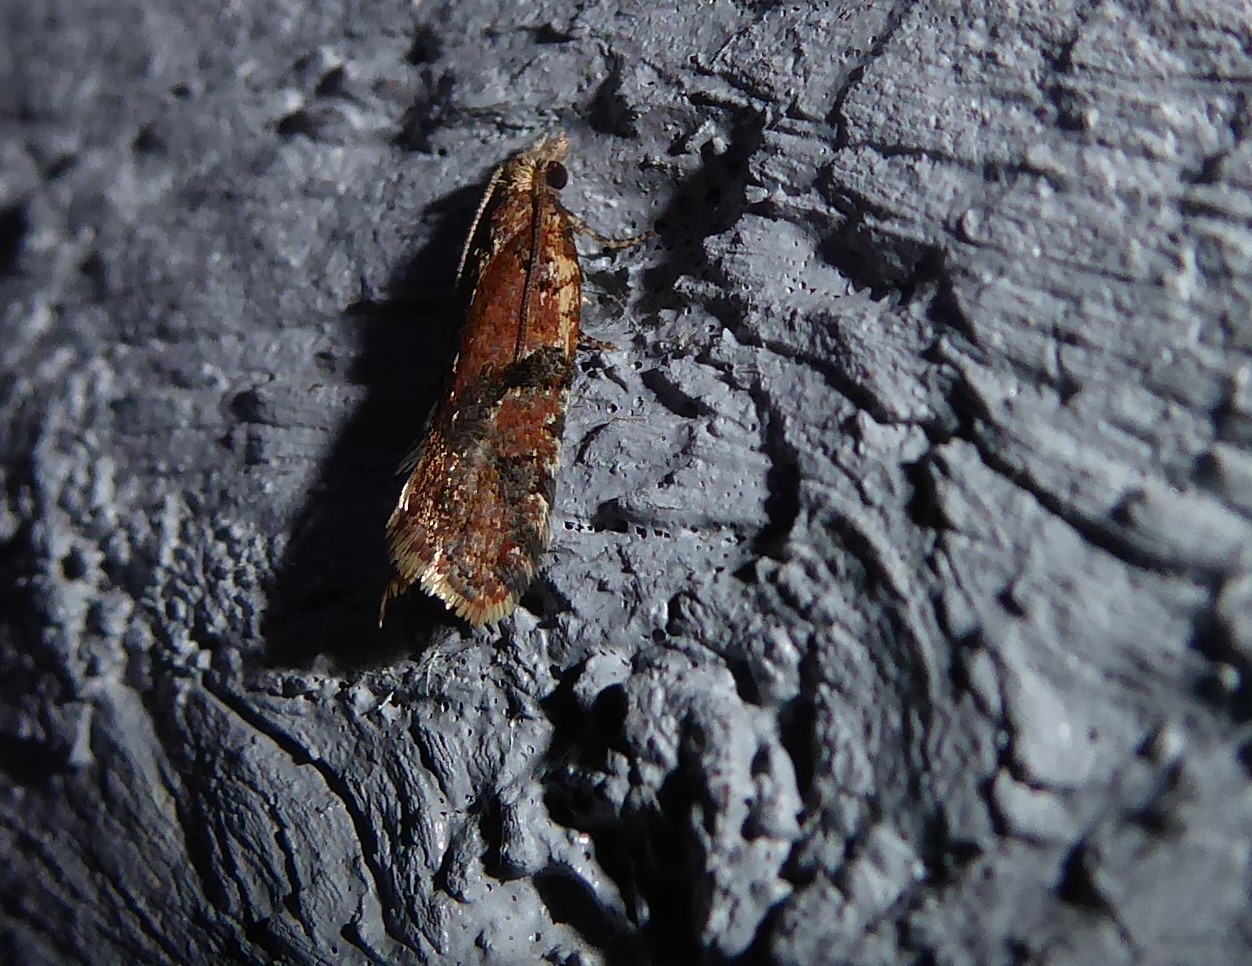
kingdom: Animalia
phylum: Arthropoda
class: Insecta
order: Lepidoptera
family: Tortricidae
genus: Capua
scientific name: Capua semiferana
